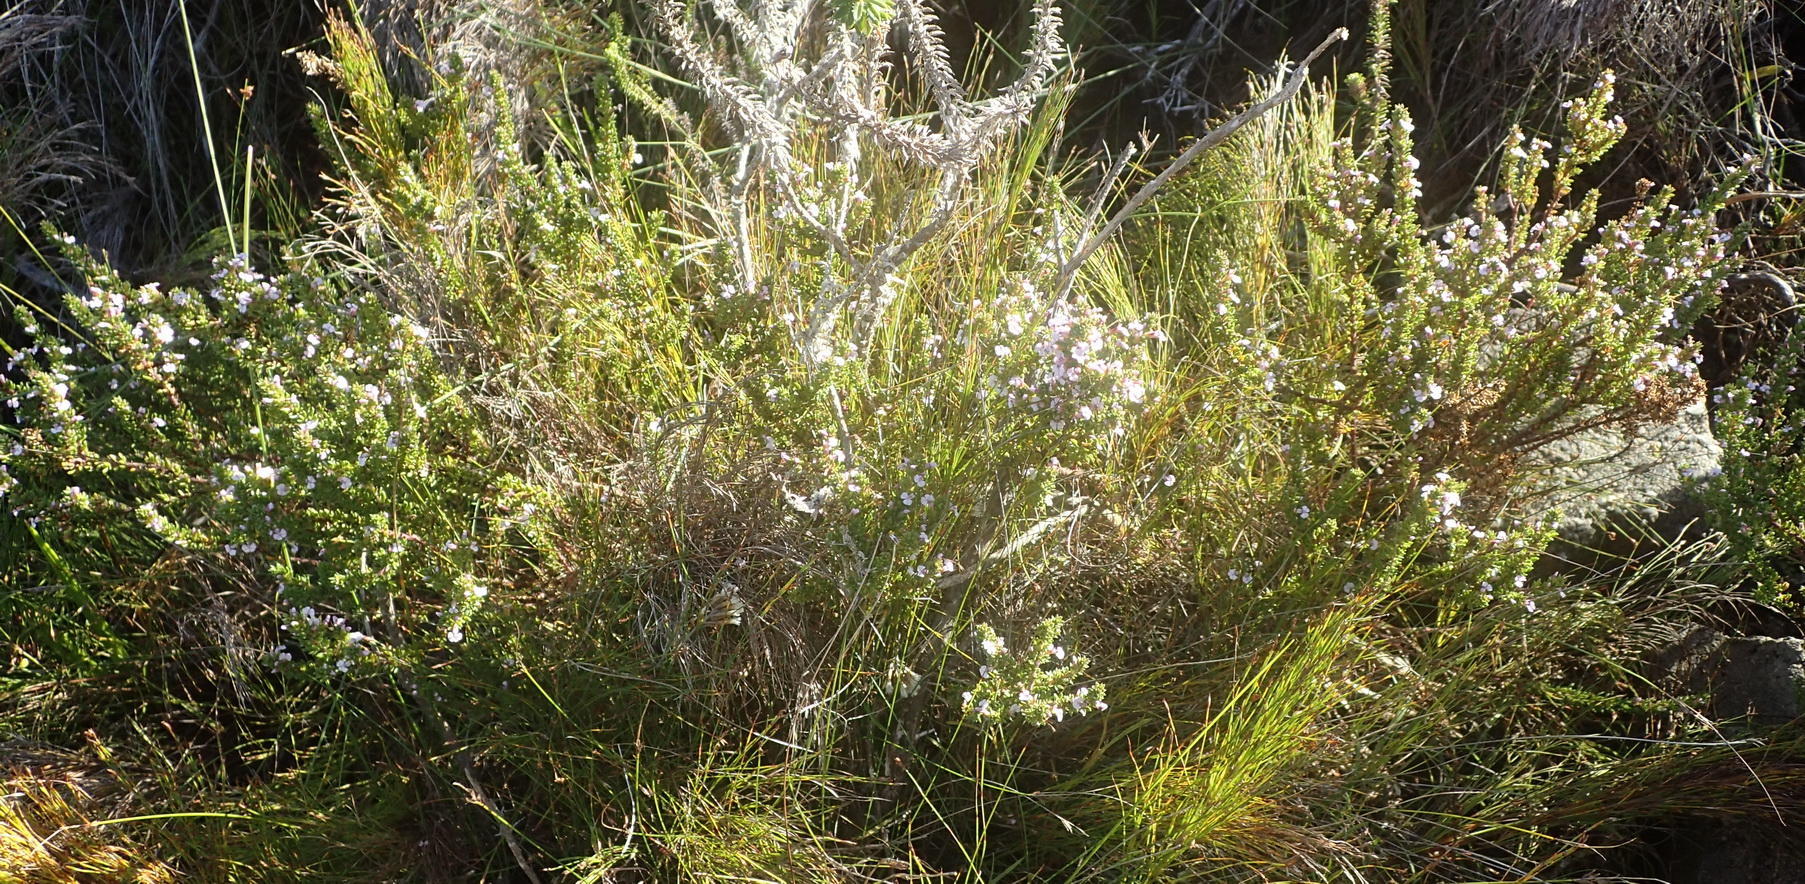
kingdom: Plantae
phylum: Tracheophyta
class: Magnoliopsida
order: Fabales
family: Polygalaceae
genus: Muraltia
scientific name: Muraltia satureioides
